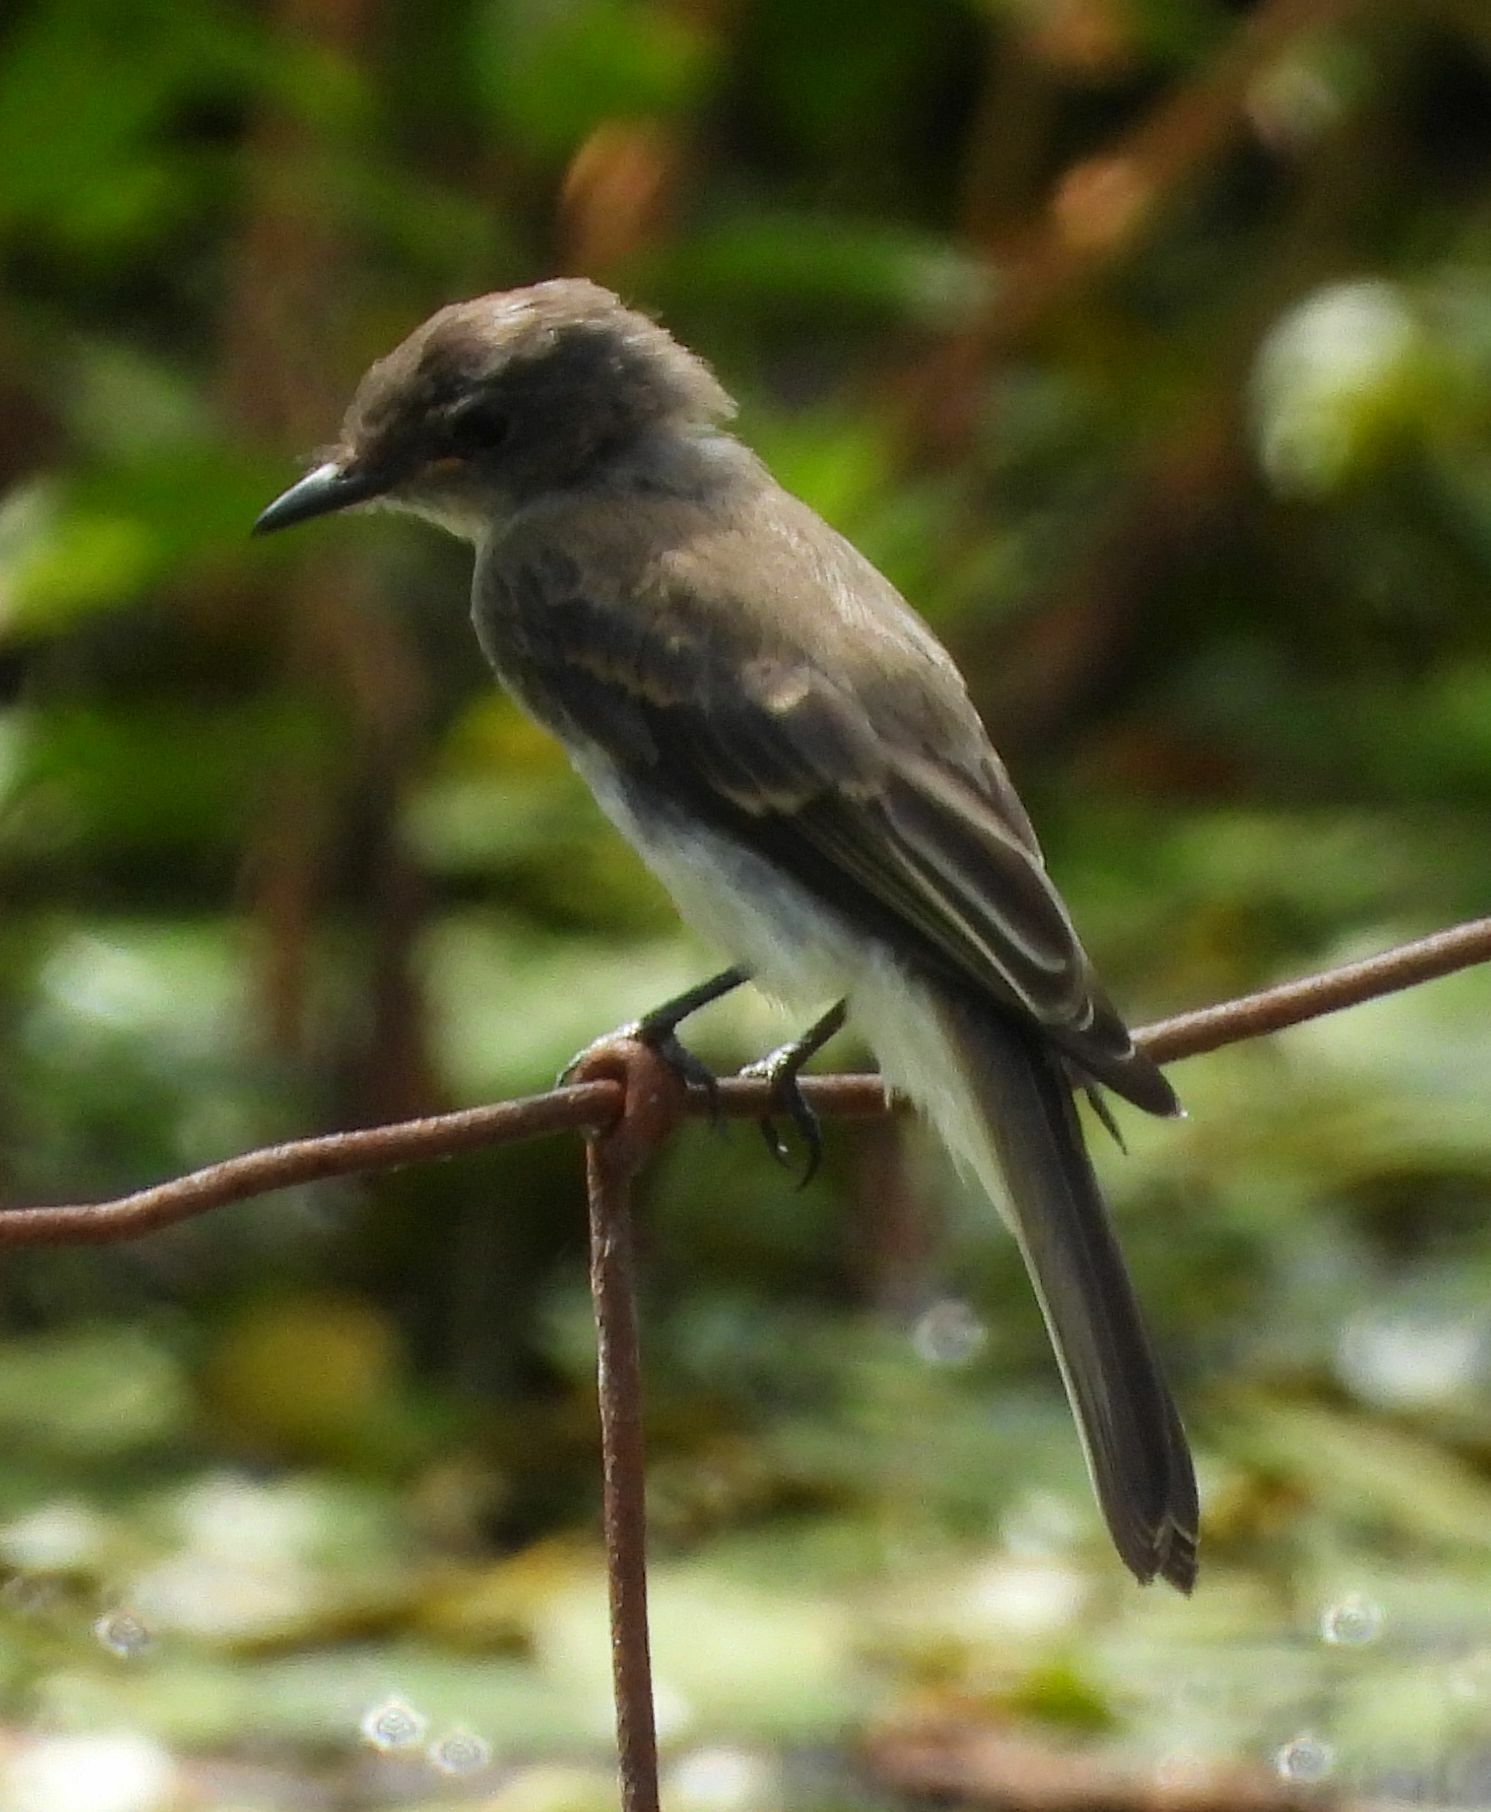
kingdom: Animalia
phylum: Chordata
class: Aves
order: Passeriformes
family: Tyrannidae
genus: Sayornis
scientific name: Sayornis phoebe
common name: Eastern phoebe
